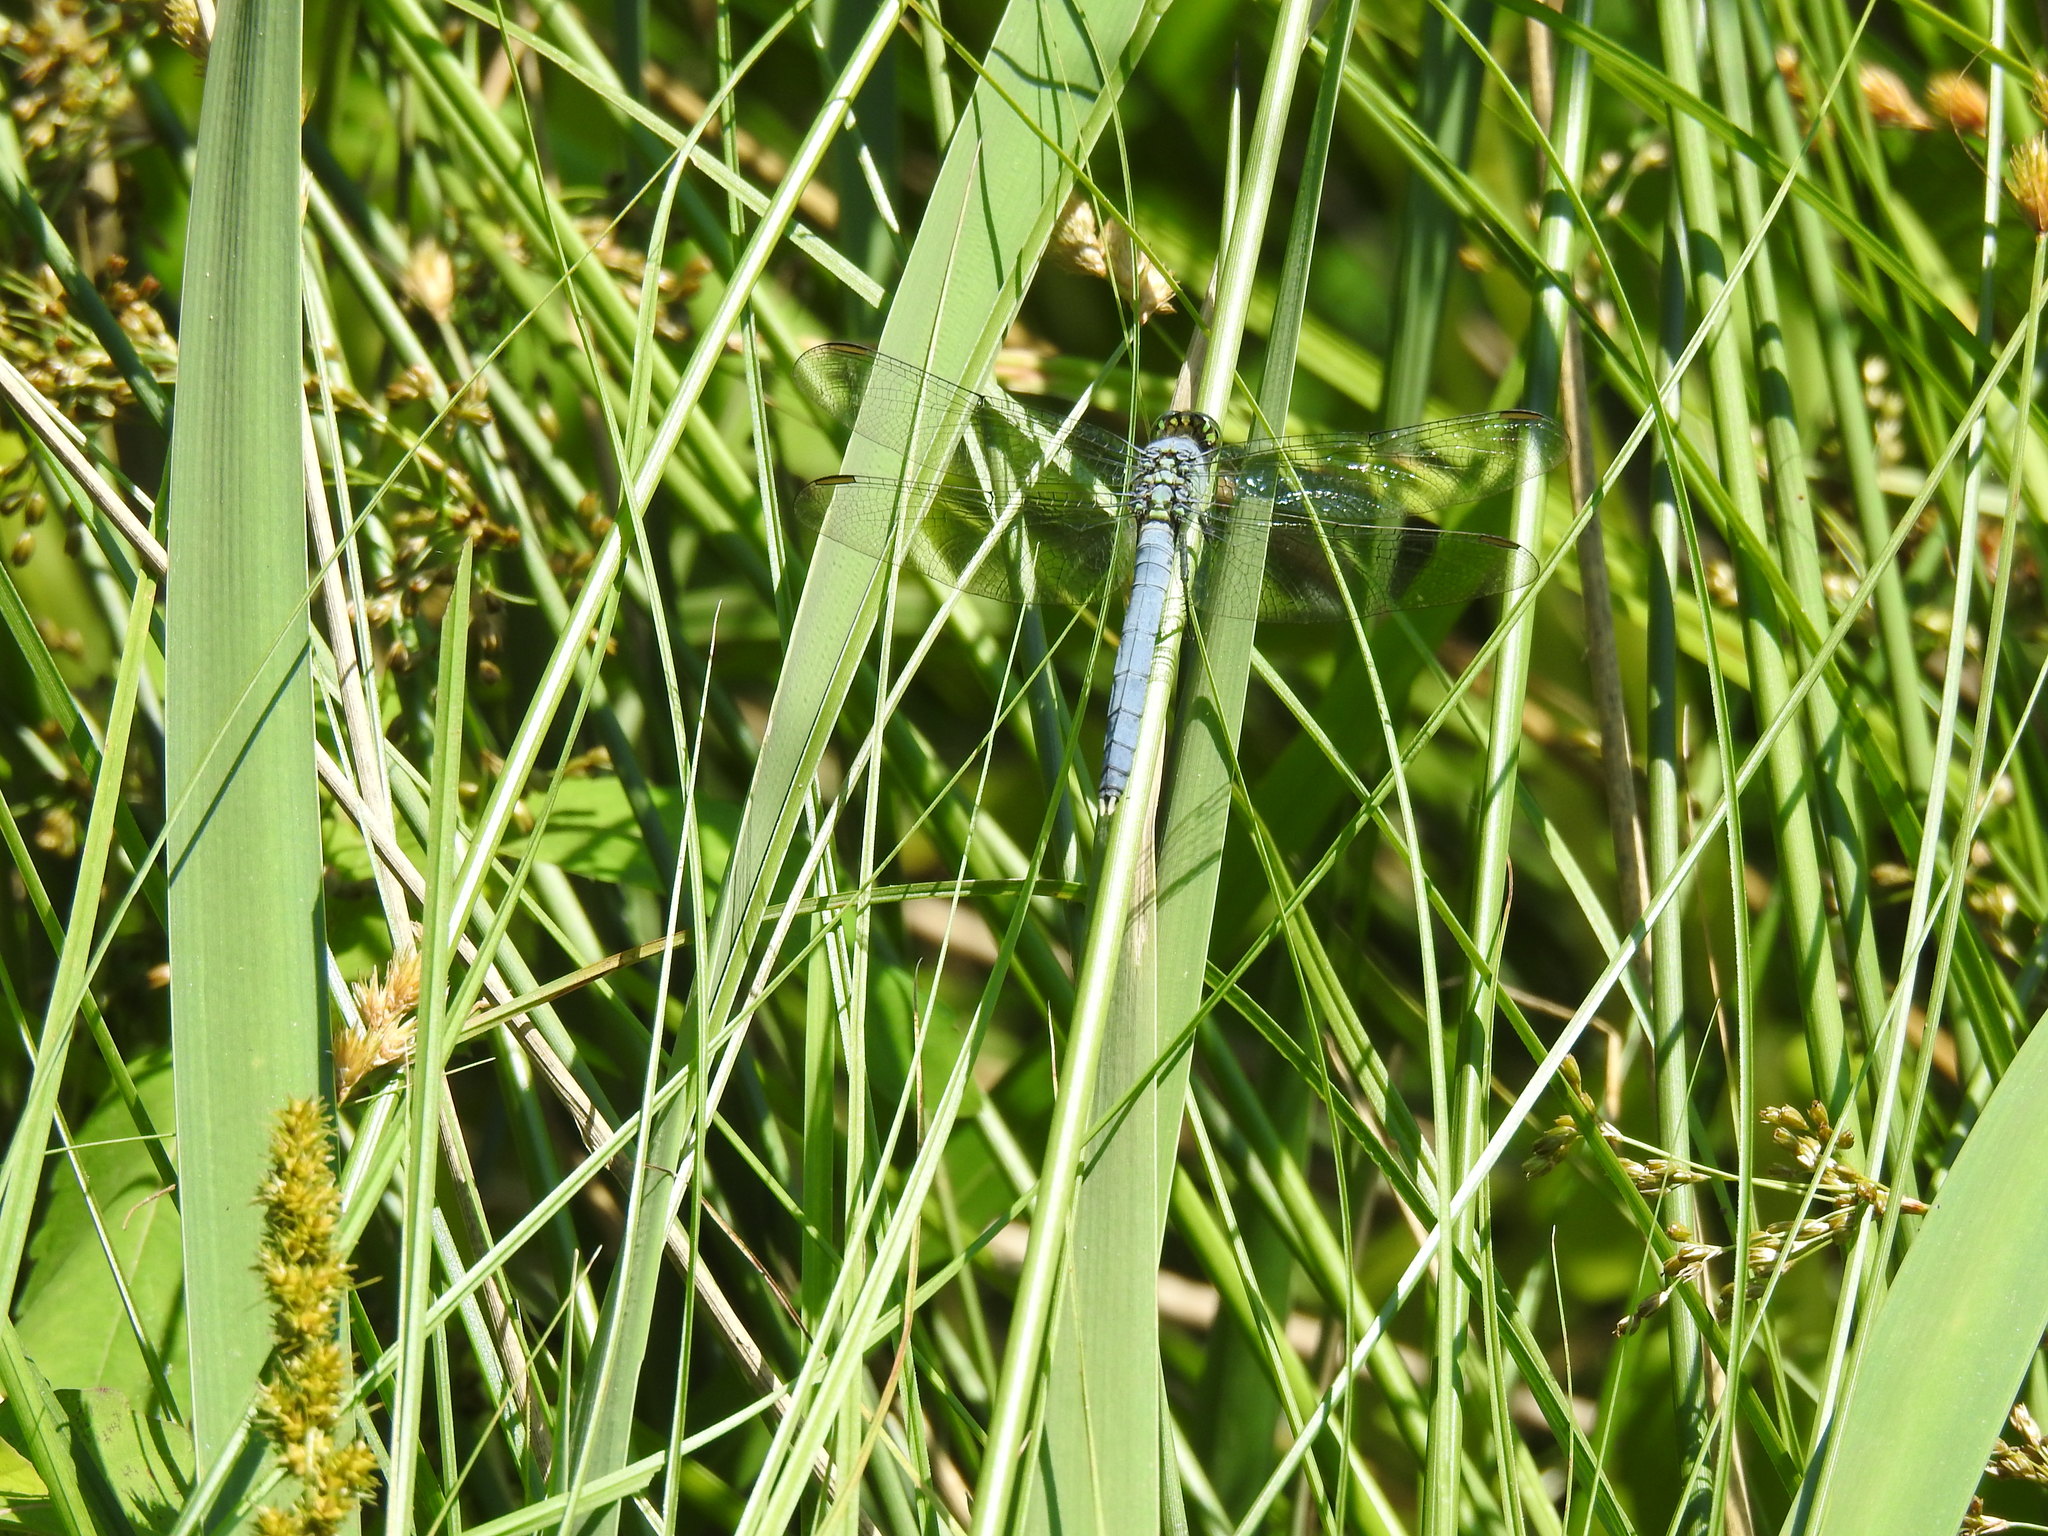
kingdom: Animalia
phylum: Arthropoda
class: Insecta
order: Odonata
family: Libellulidae
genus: Erythemis
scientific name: Erythemis simplicicollis
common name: Eastern pondhawk
